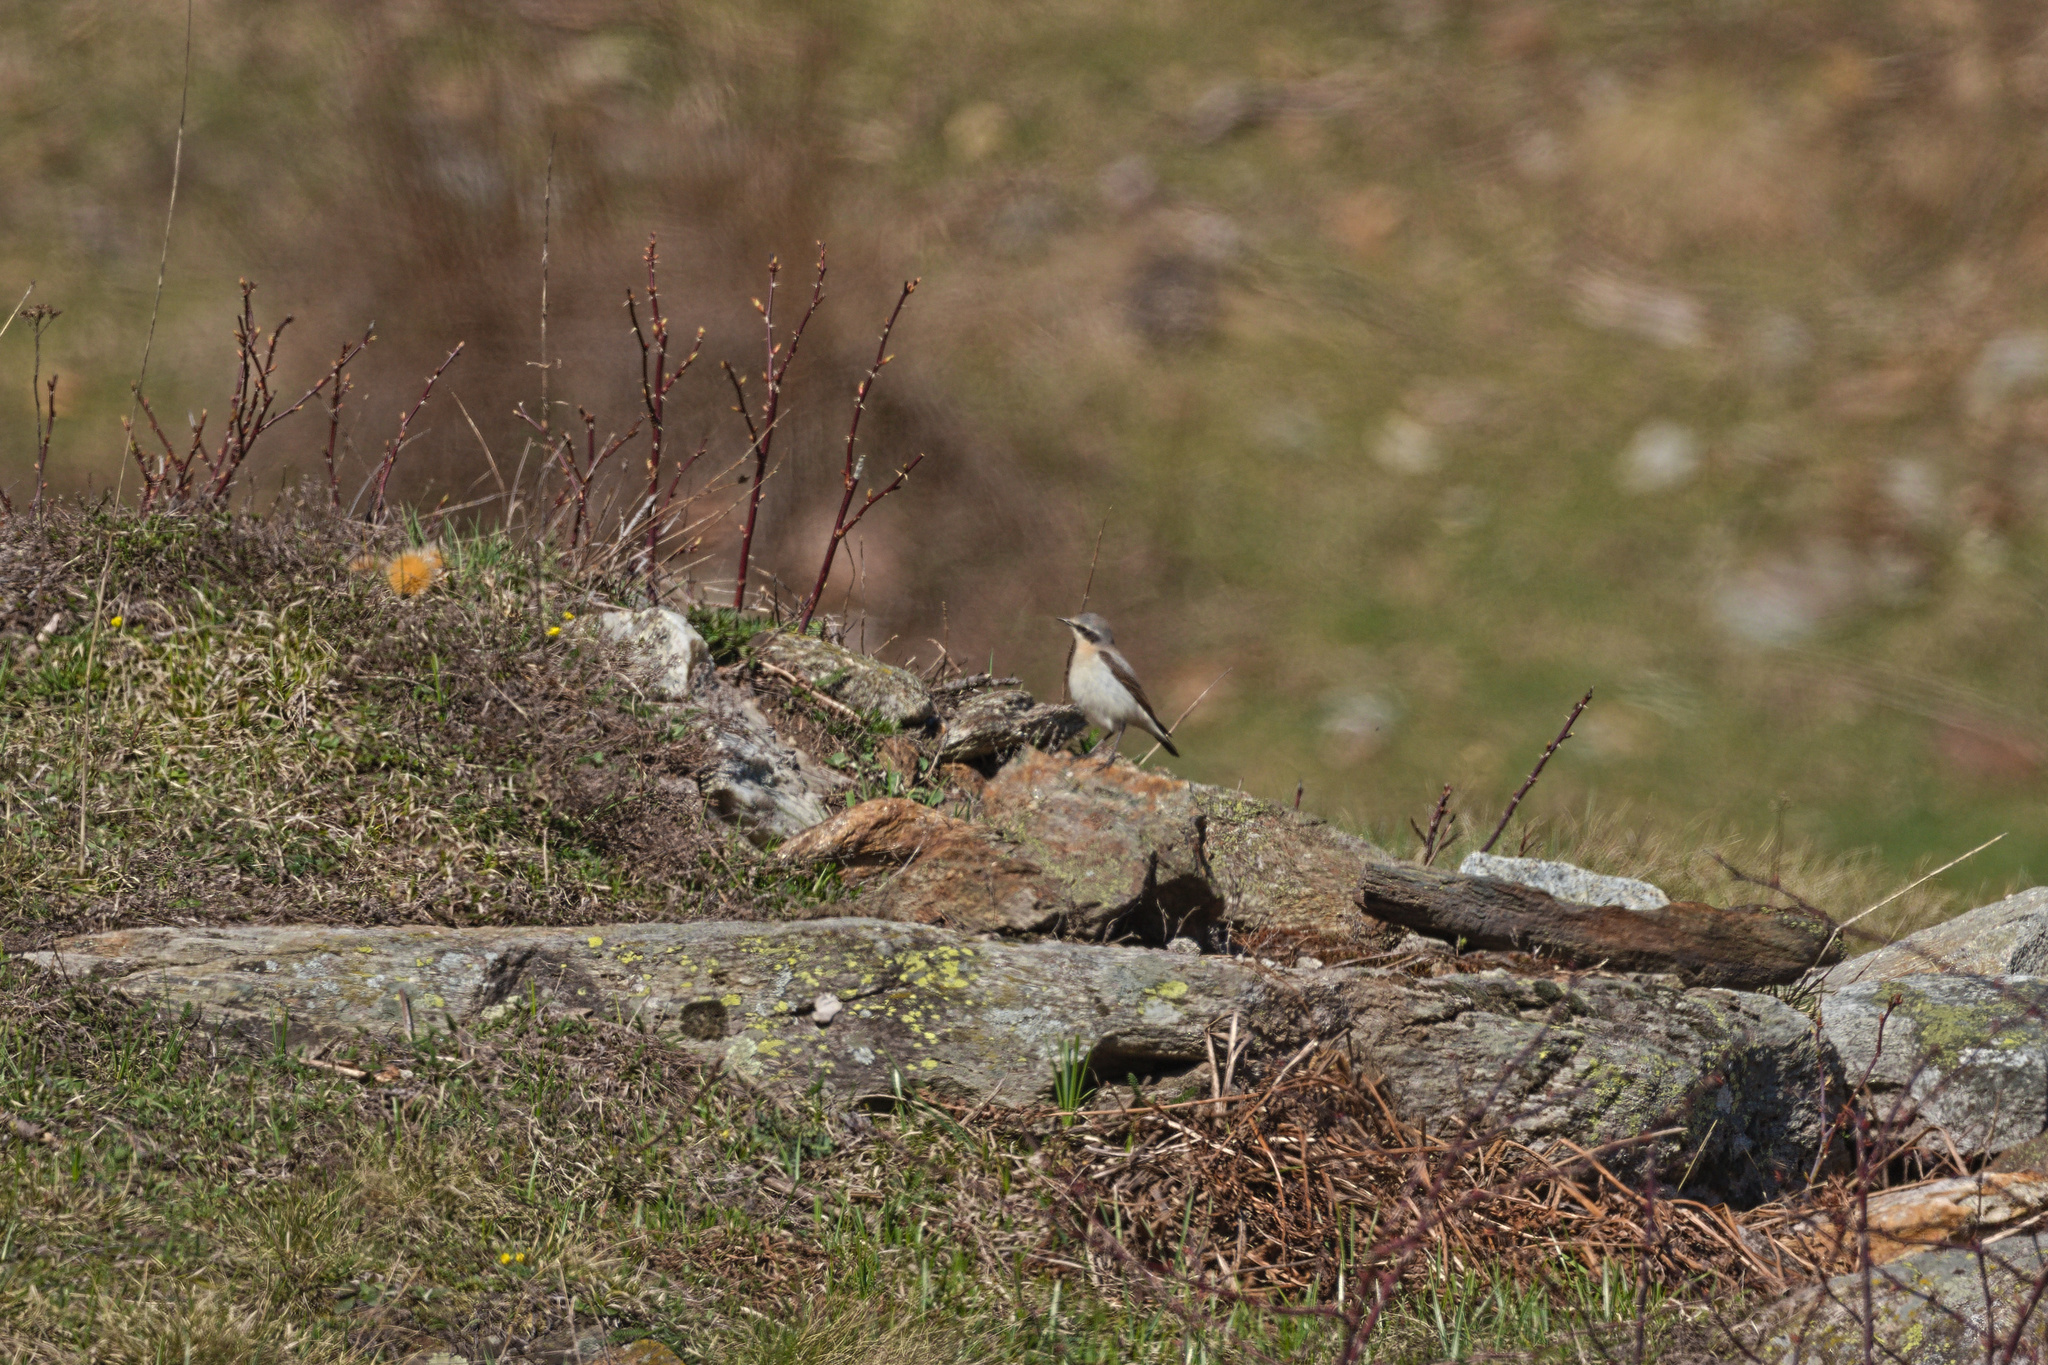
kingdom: Animalia
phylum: Chordata
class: Aves
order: Passeriformes
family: Muscicapidae
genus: Oenanthe
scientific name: Oenanthe oenanthe
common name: Northern wheatear
